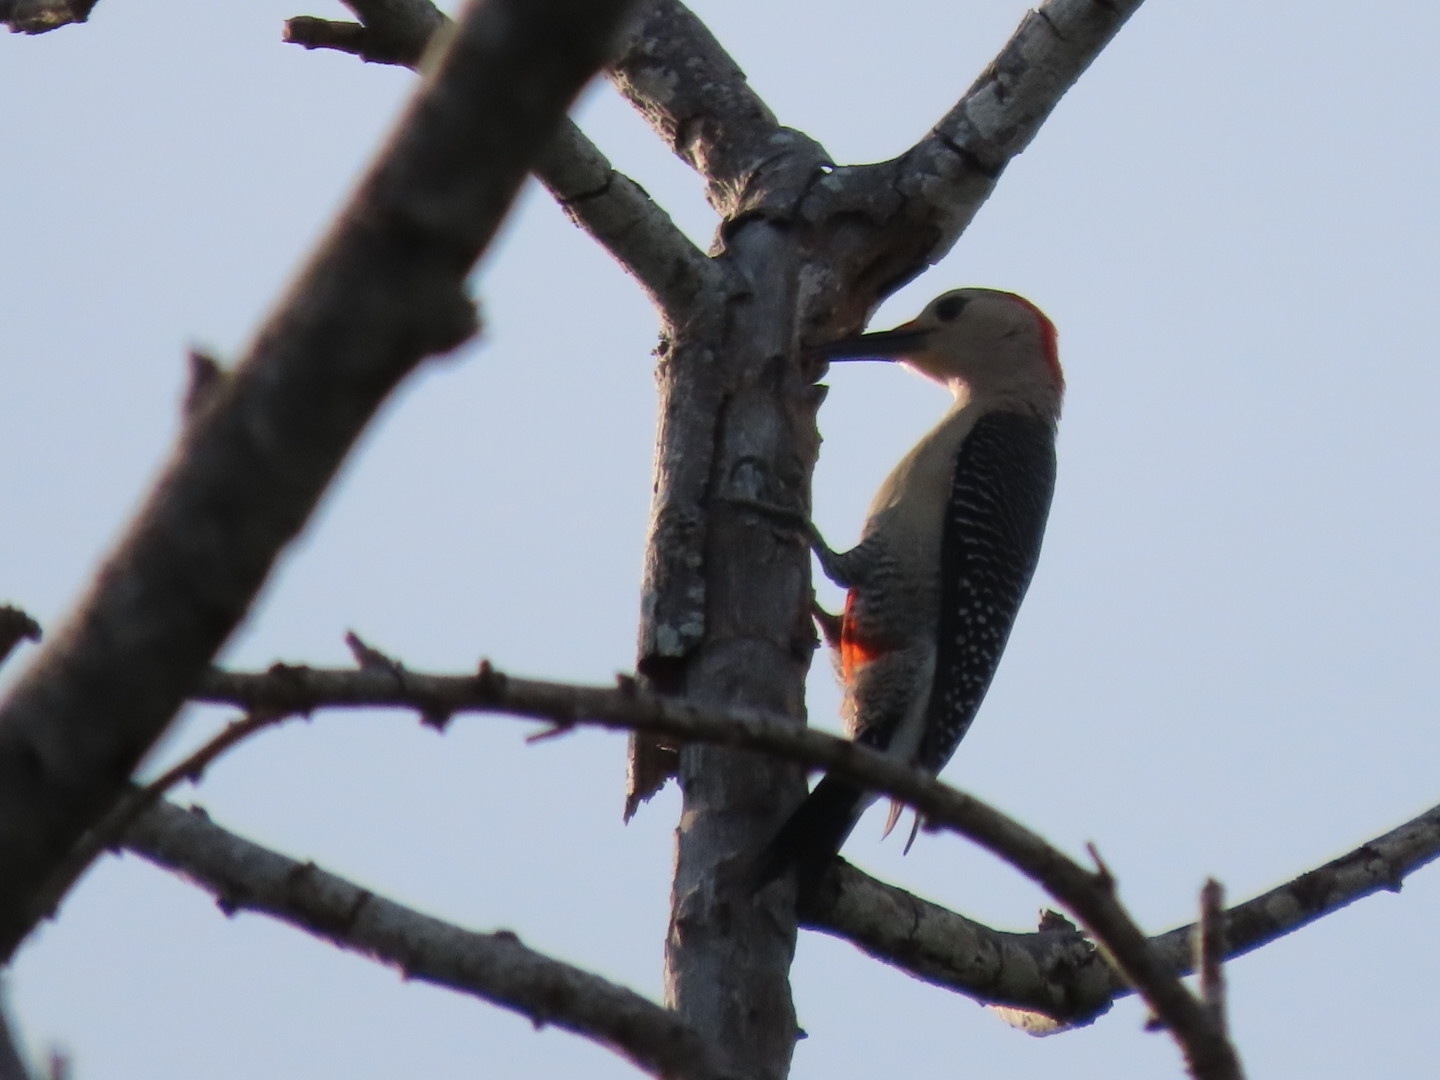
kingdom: Animalia
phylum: Chordata
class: Aves
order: Piciformes
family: Picidae
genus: Melanerpes
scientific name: Melanerpes aurifrons
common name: Golden-fronted woodpecker
